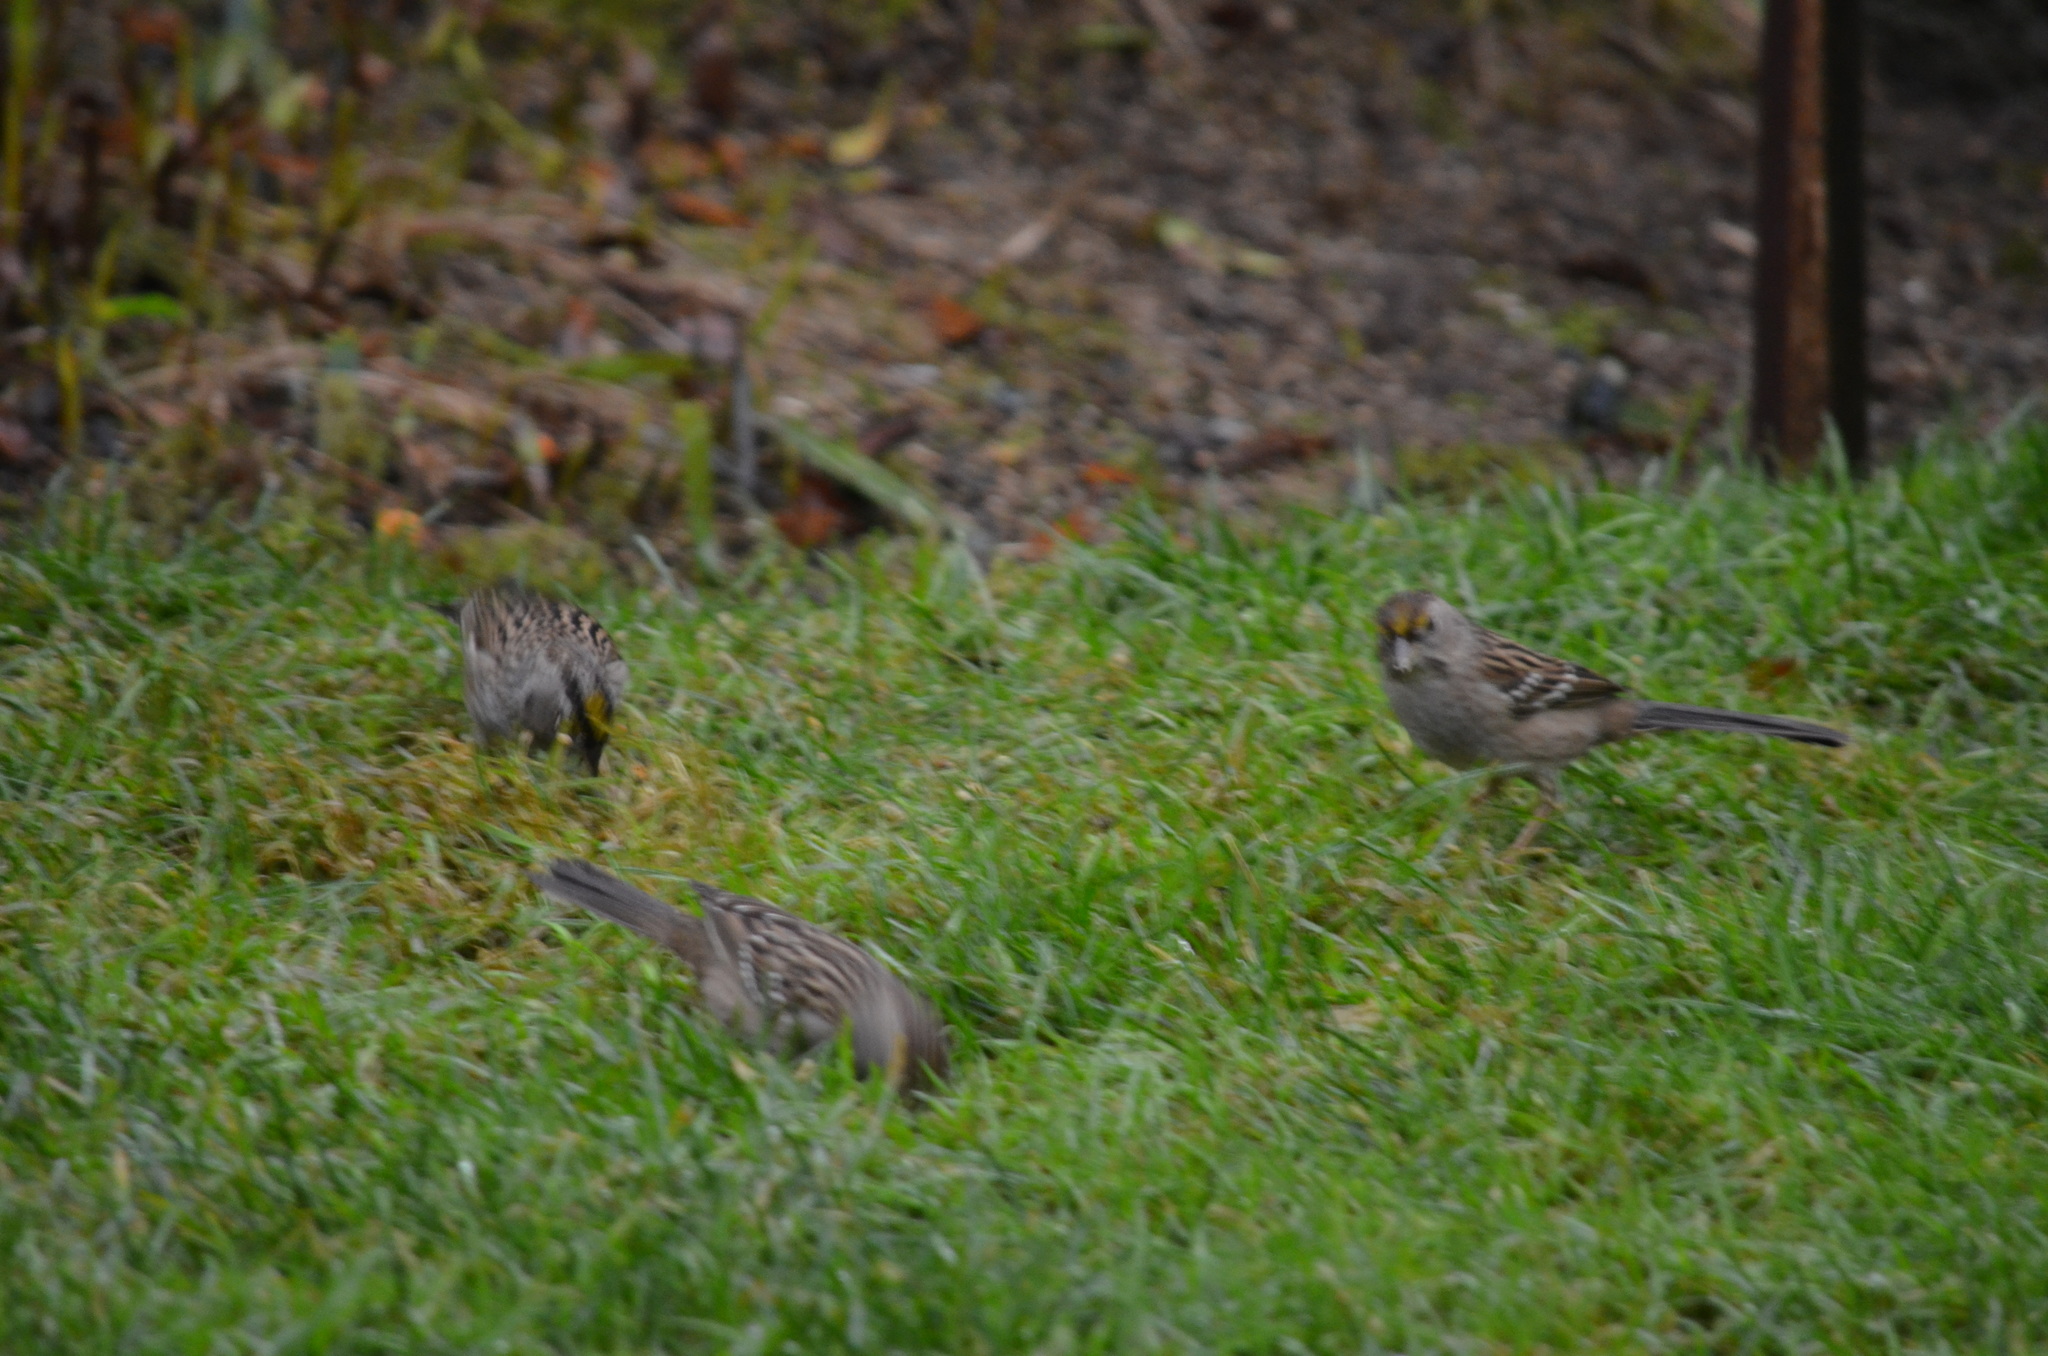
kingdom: Animalia
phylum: Chordata
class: Aves
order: Passeriformes
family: Passerellidae
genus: Zonotrichia
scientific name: Zonotrichia atricapilla
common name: Golden-crowned sparrow
